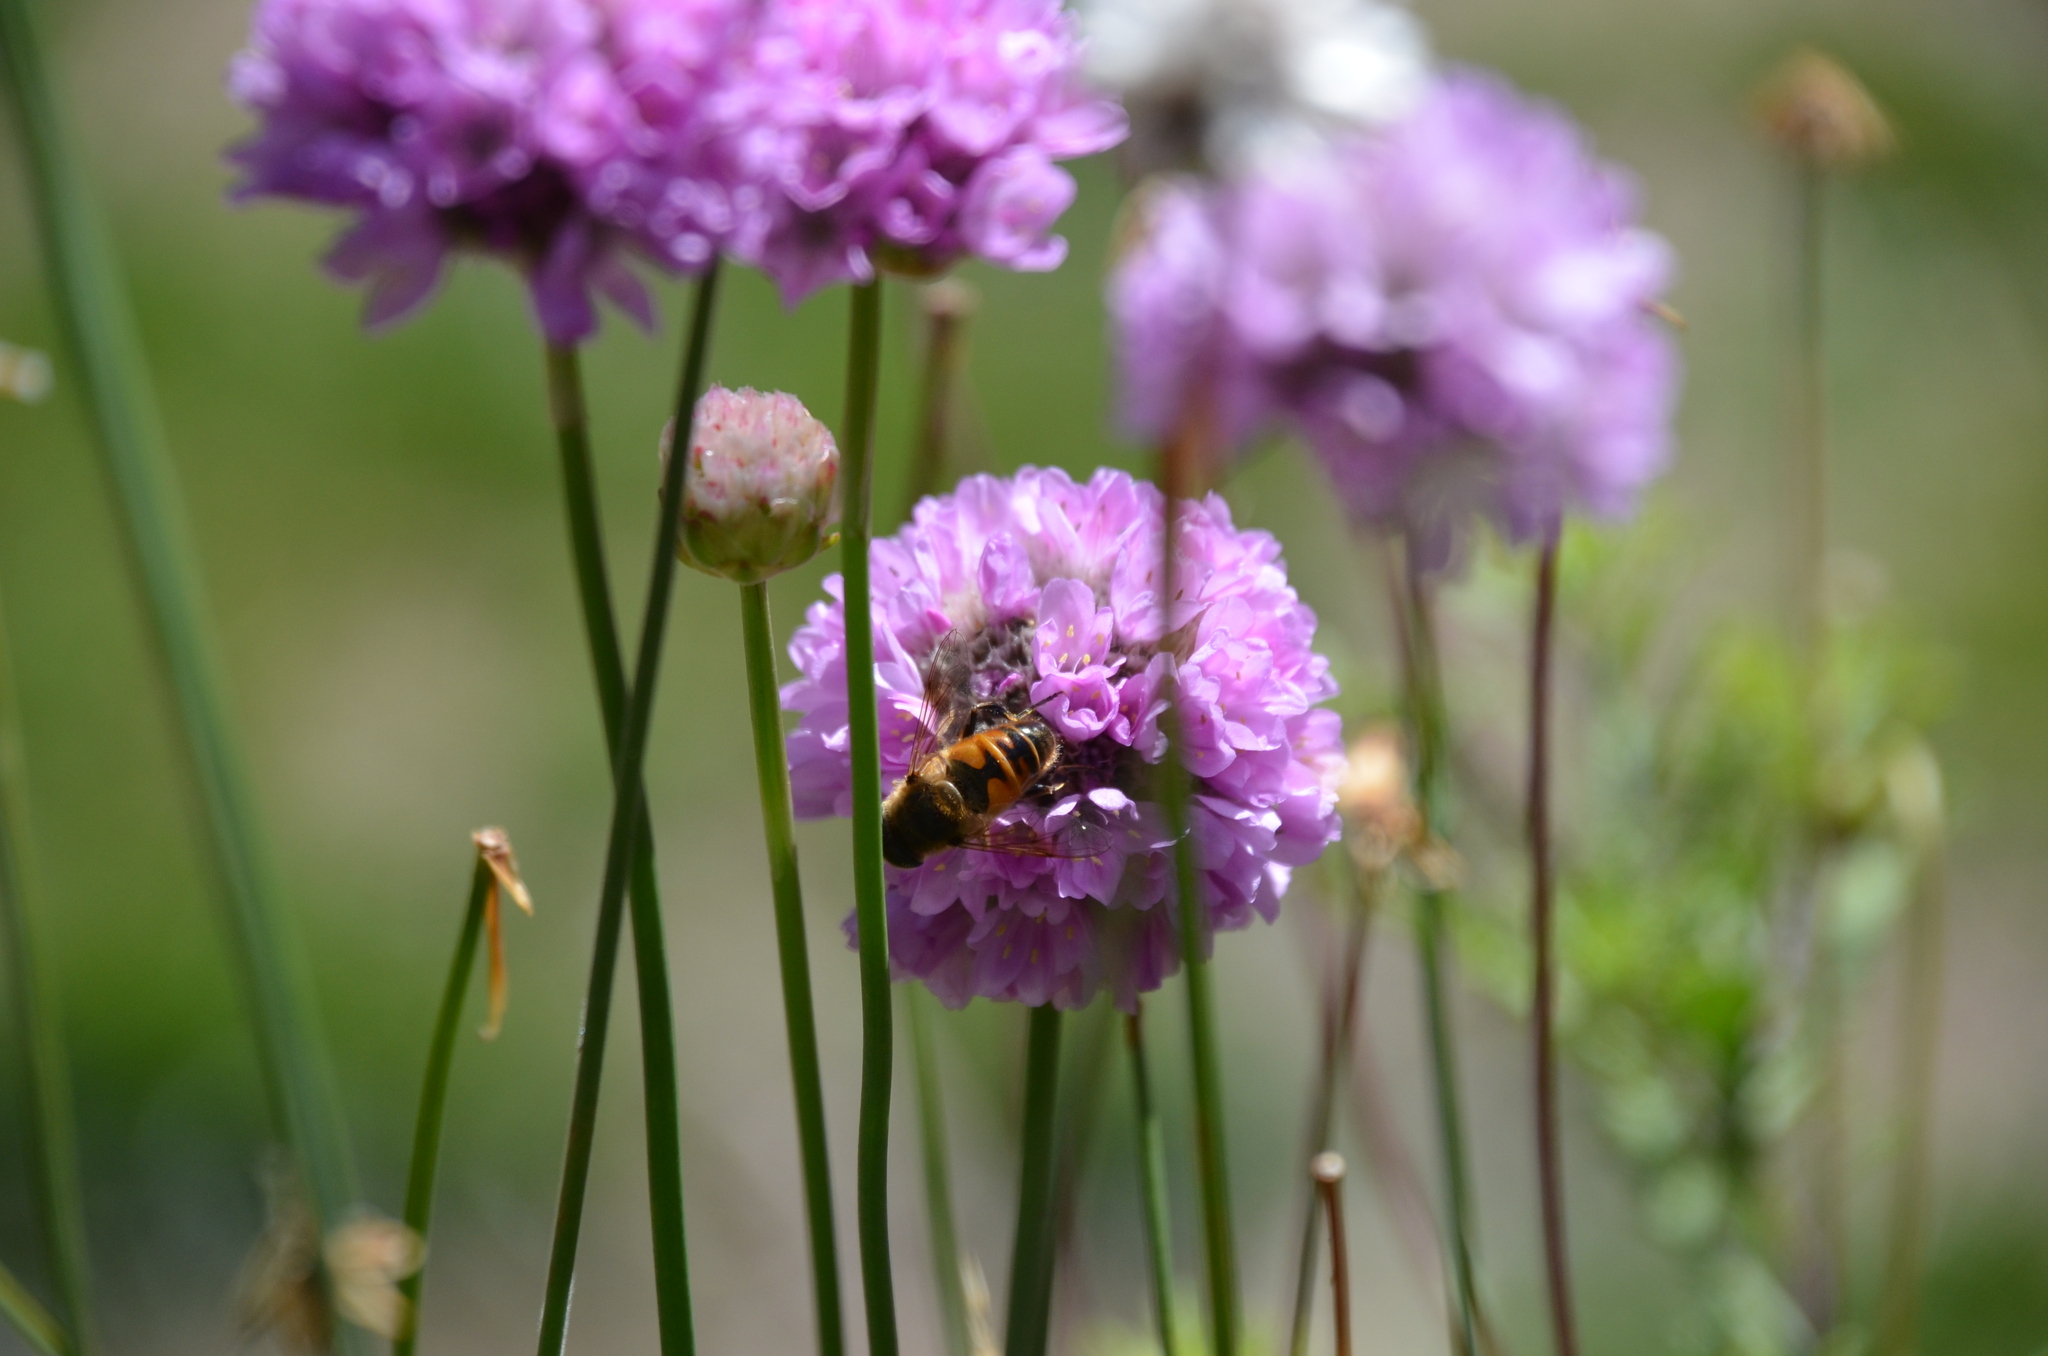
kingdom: Animalia
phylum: Arthropoda
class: Insecta
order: Diptera
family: Syrphidae
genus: Eristalis
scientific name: Eristalis tenax
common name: Drone fly
